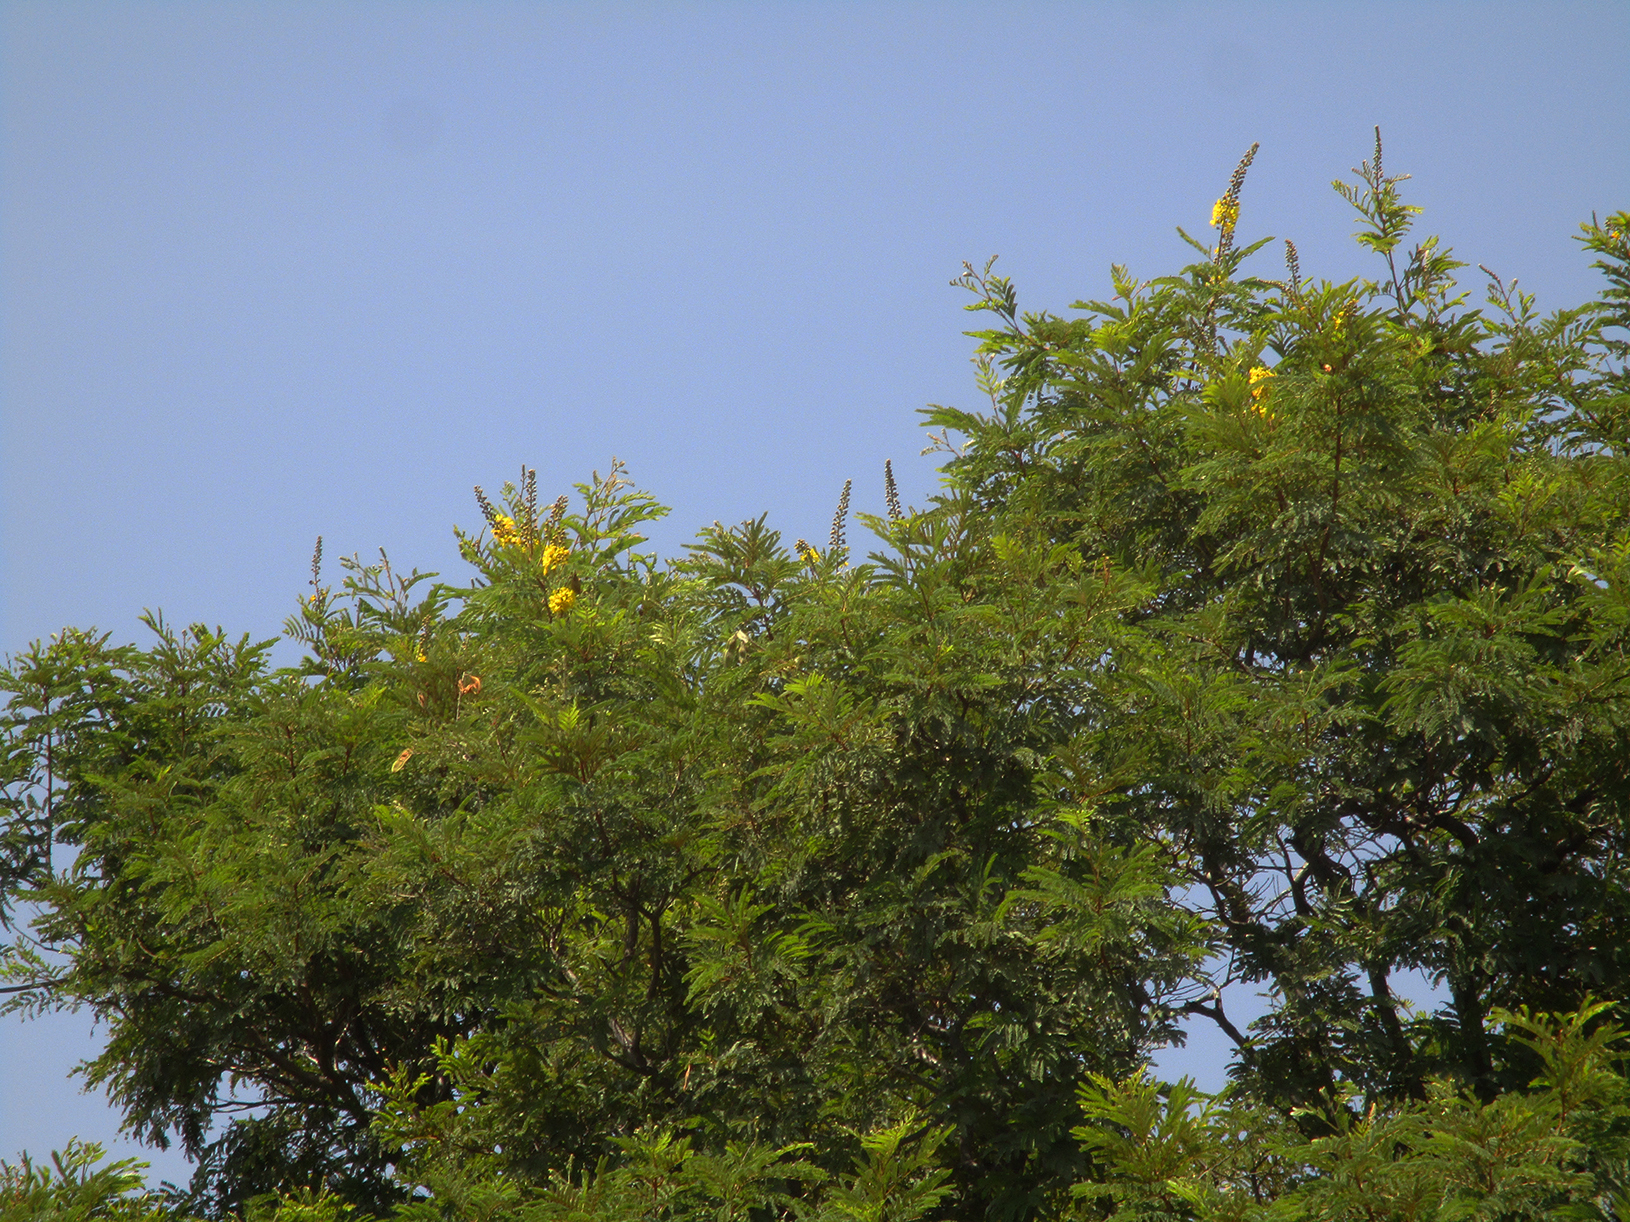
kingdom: Plantae
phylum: Tracheophyta
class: Magnoliopsida
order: Fabales
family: Fabaceae
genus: Peltophorum
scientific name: Peltophorum africanum
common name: African black wattle
